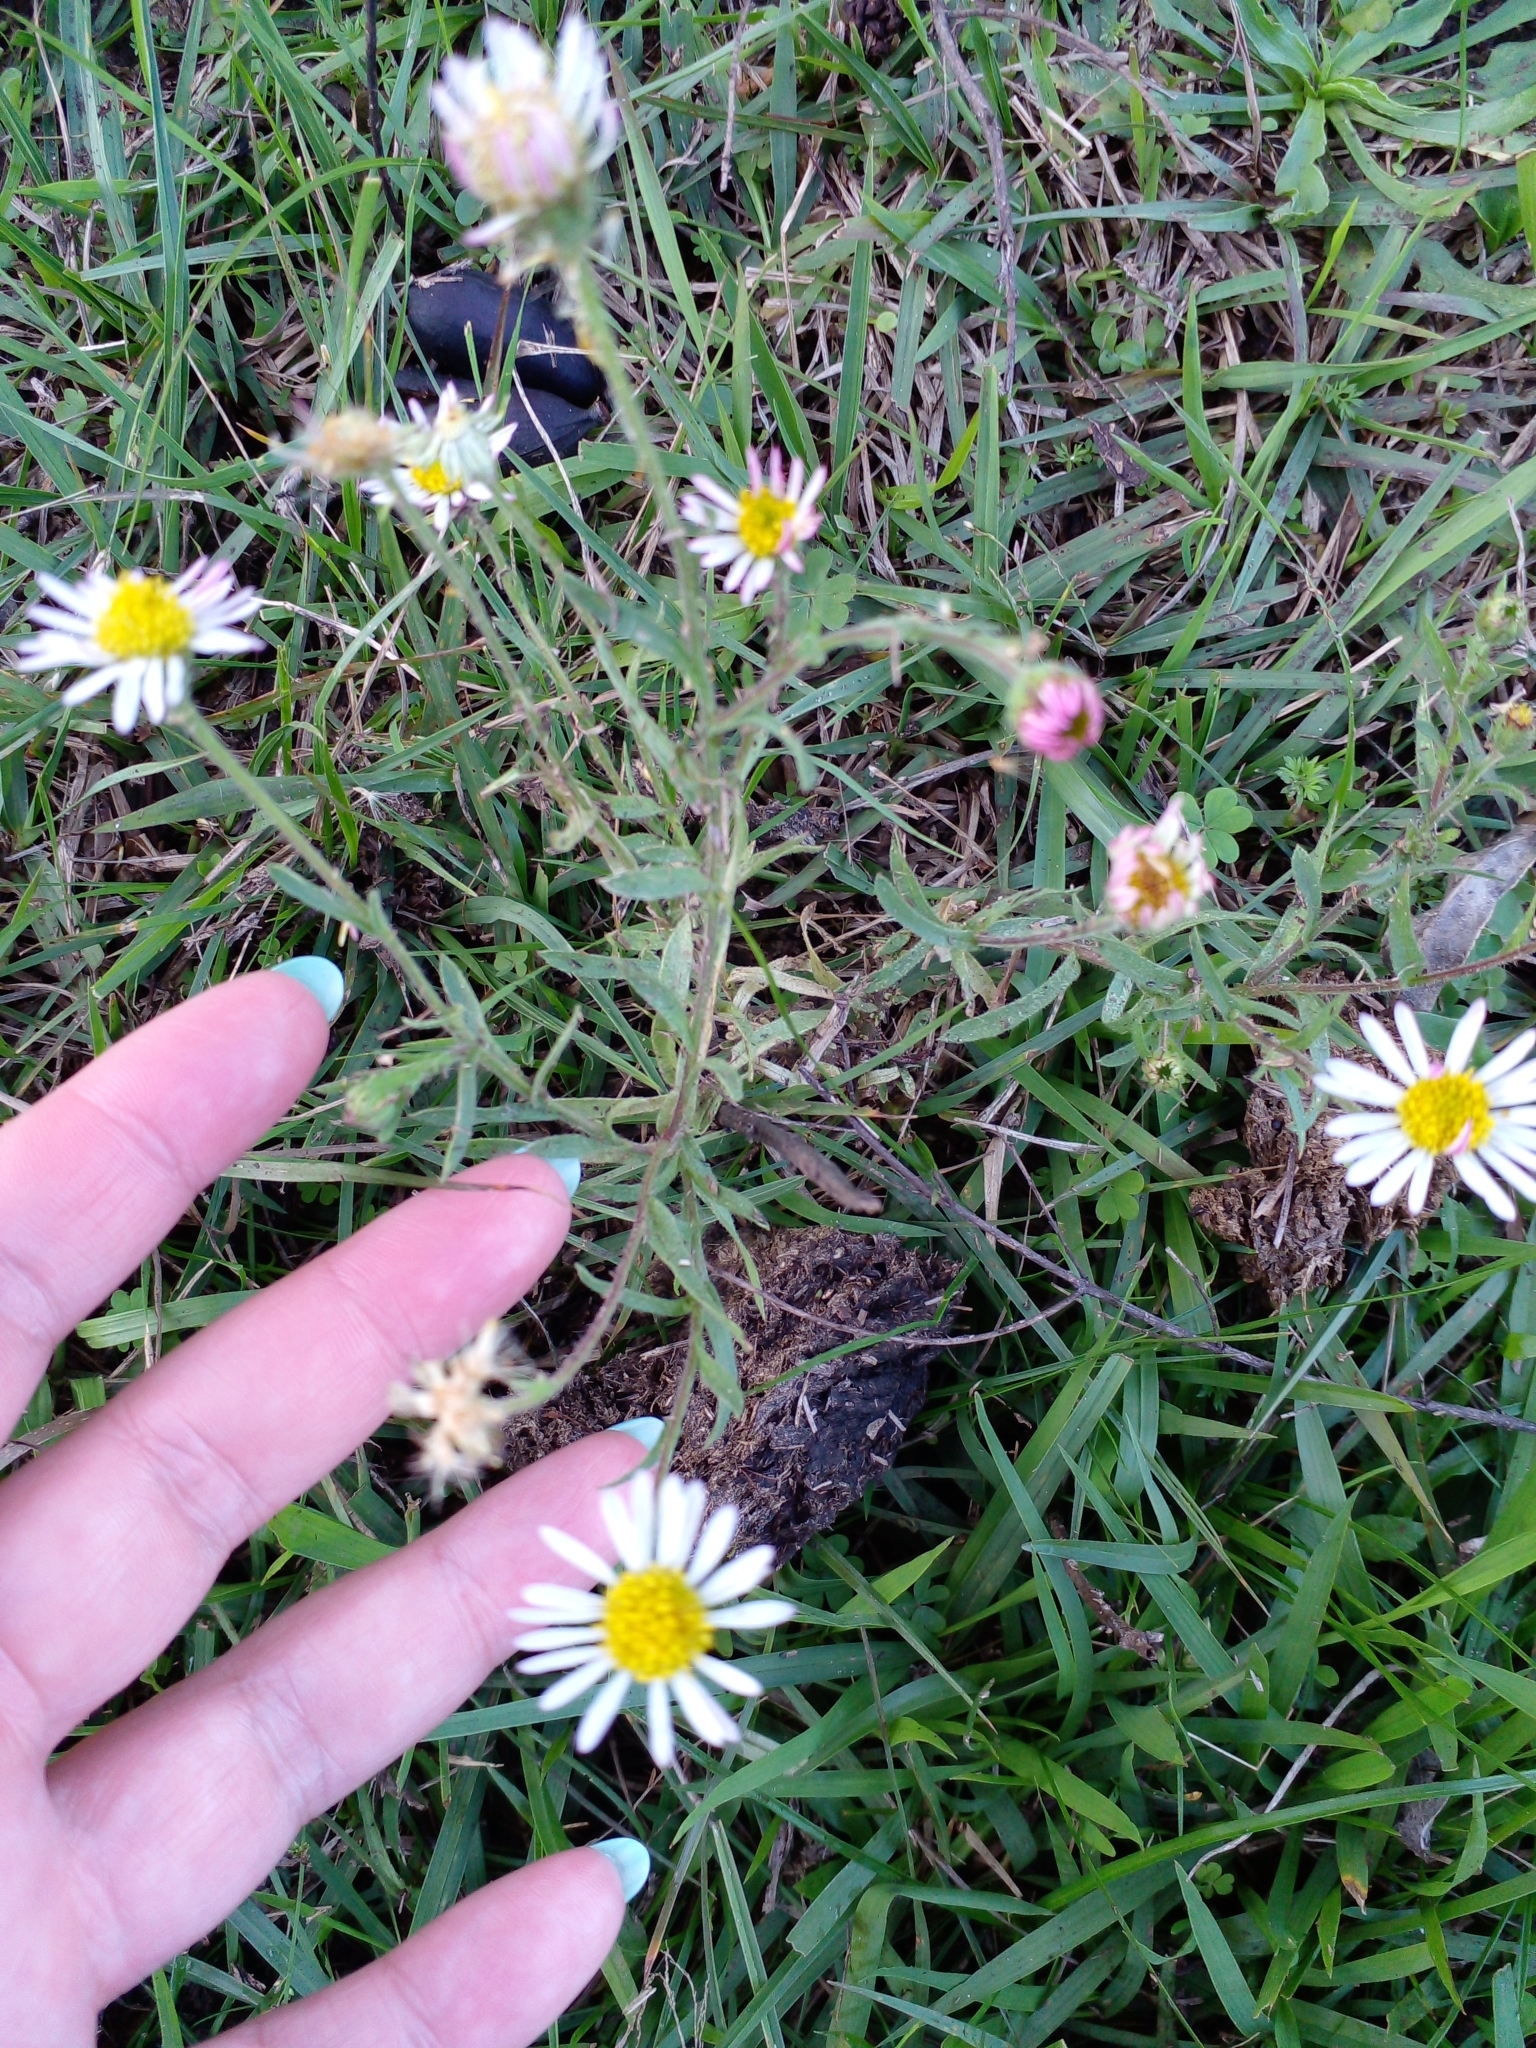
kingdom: Plantae
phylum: Tracheophyta
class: Magnoliopsida
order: Asterales
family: Asteraceae
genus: Hysterionica
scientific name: Hysterionica resinosa
